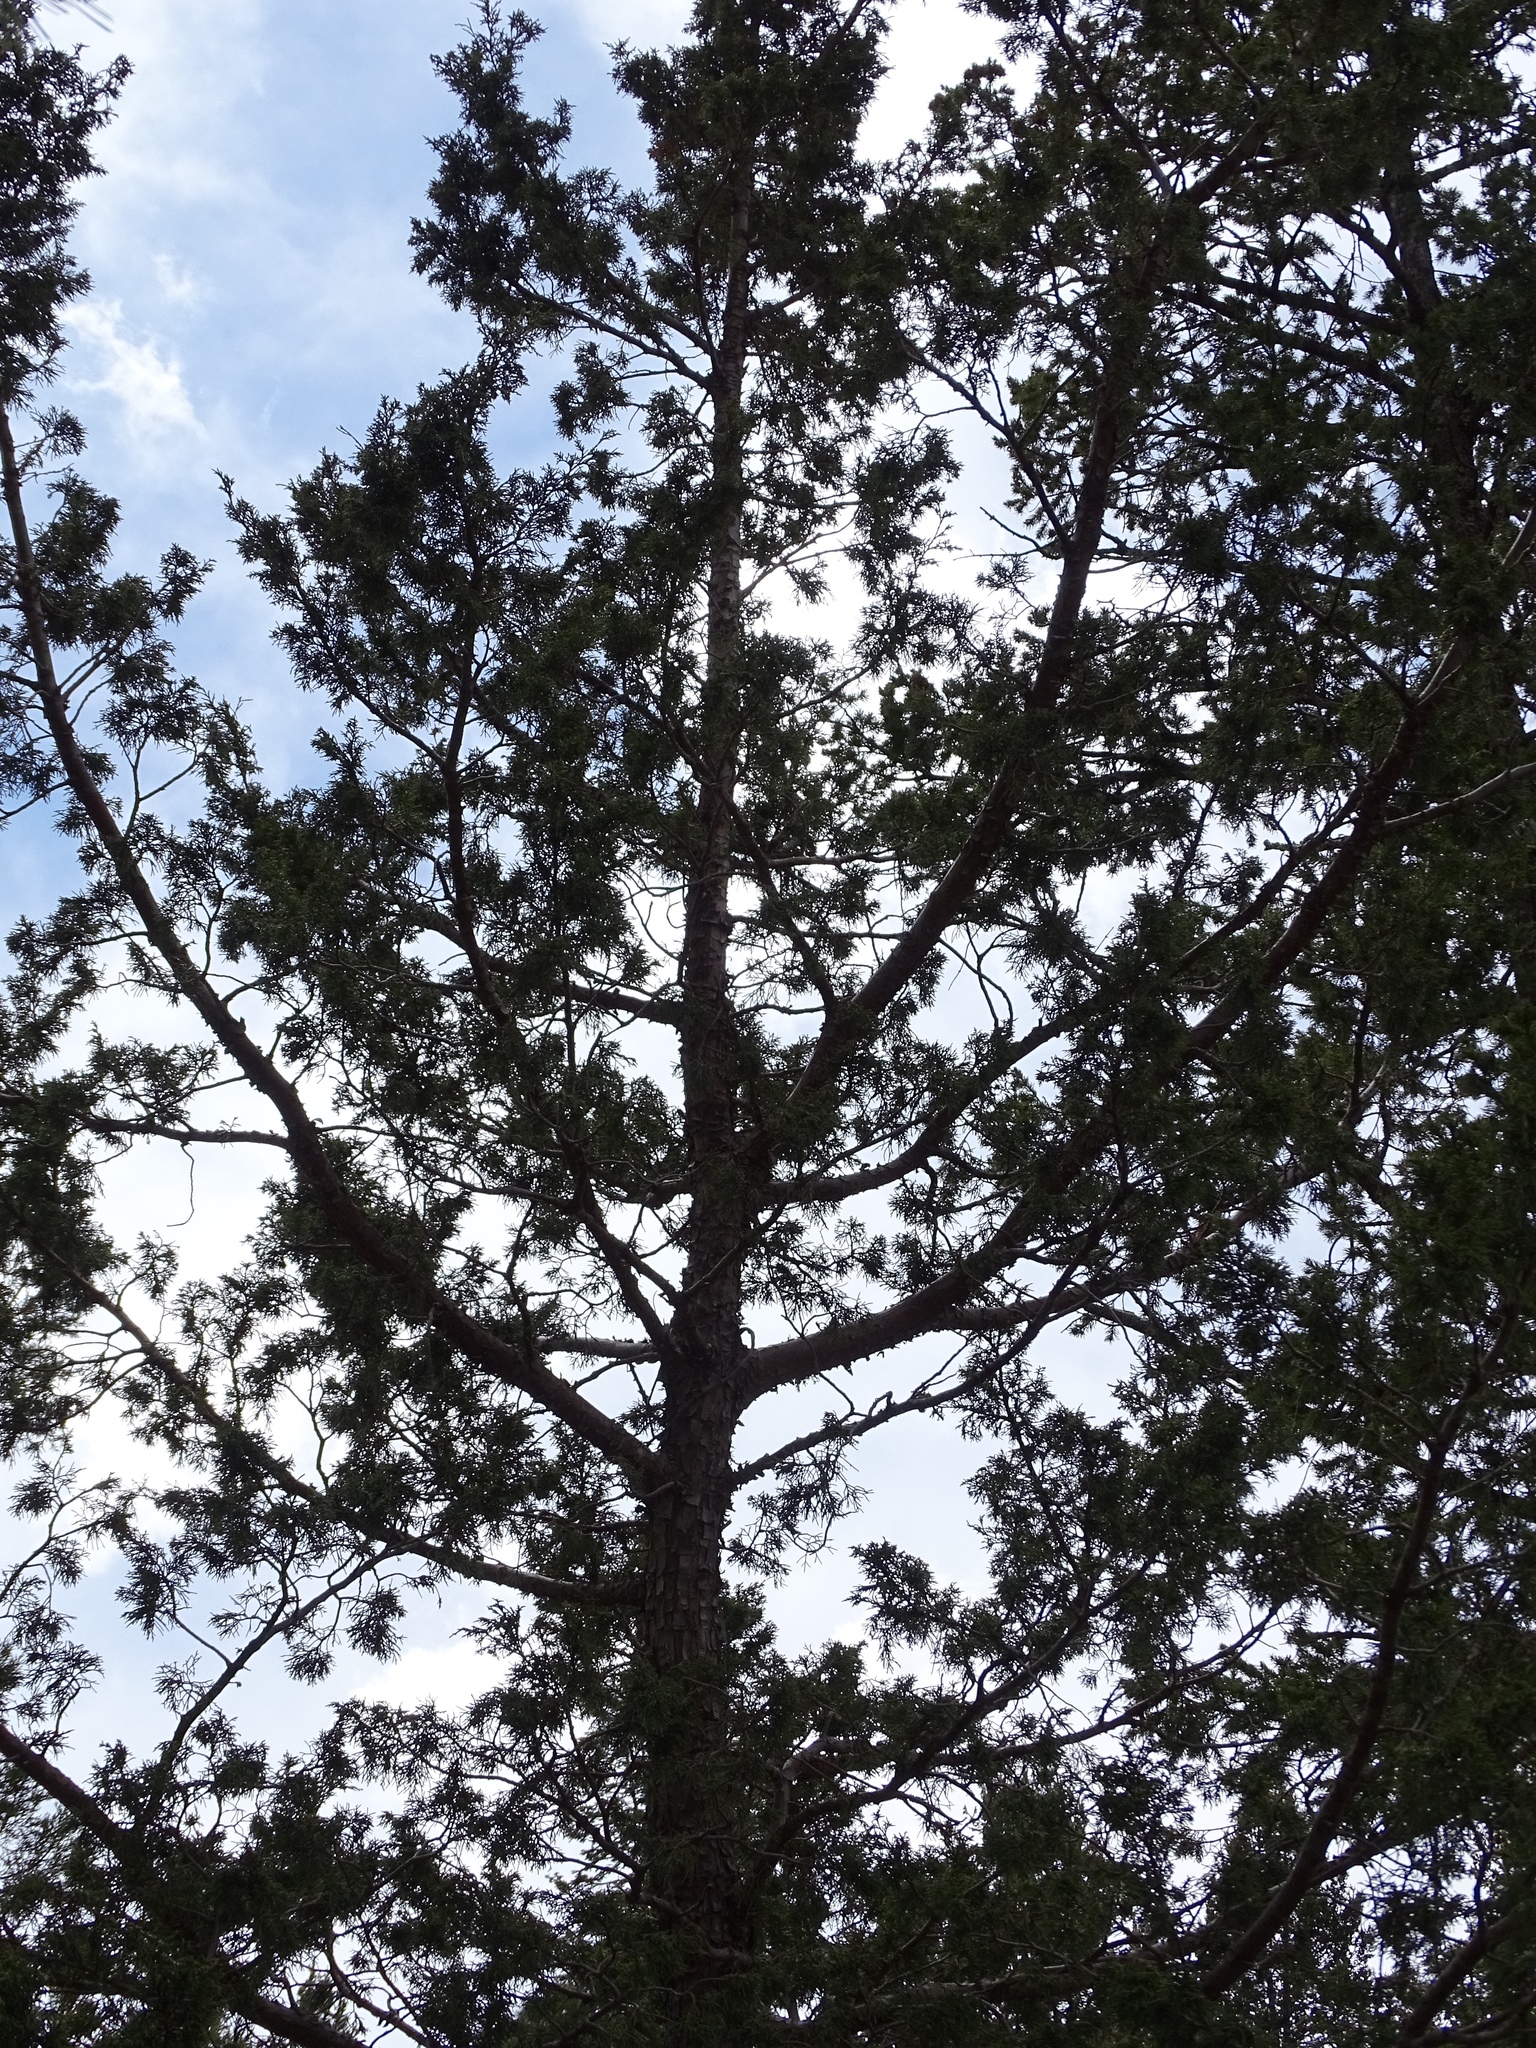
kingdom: Plantae
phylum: Tracheophyta
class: Pinopsida
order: Pinales
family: Pinaceae
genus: Pinus
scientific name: Pinus strobiformis
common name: Southwestern white pine
